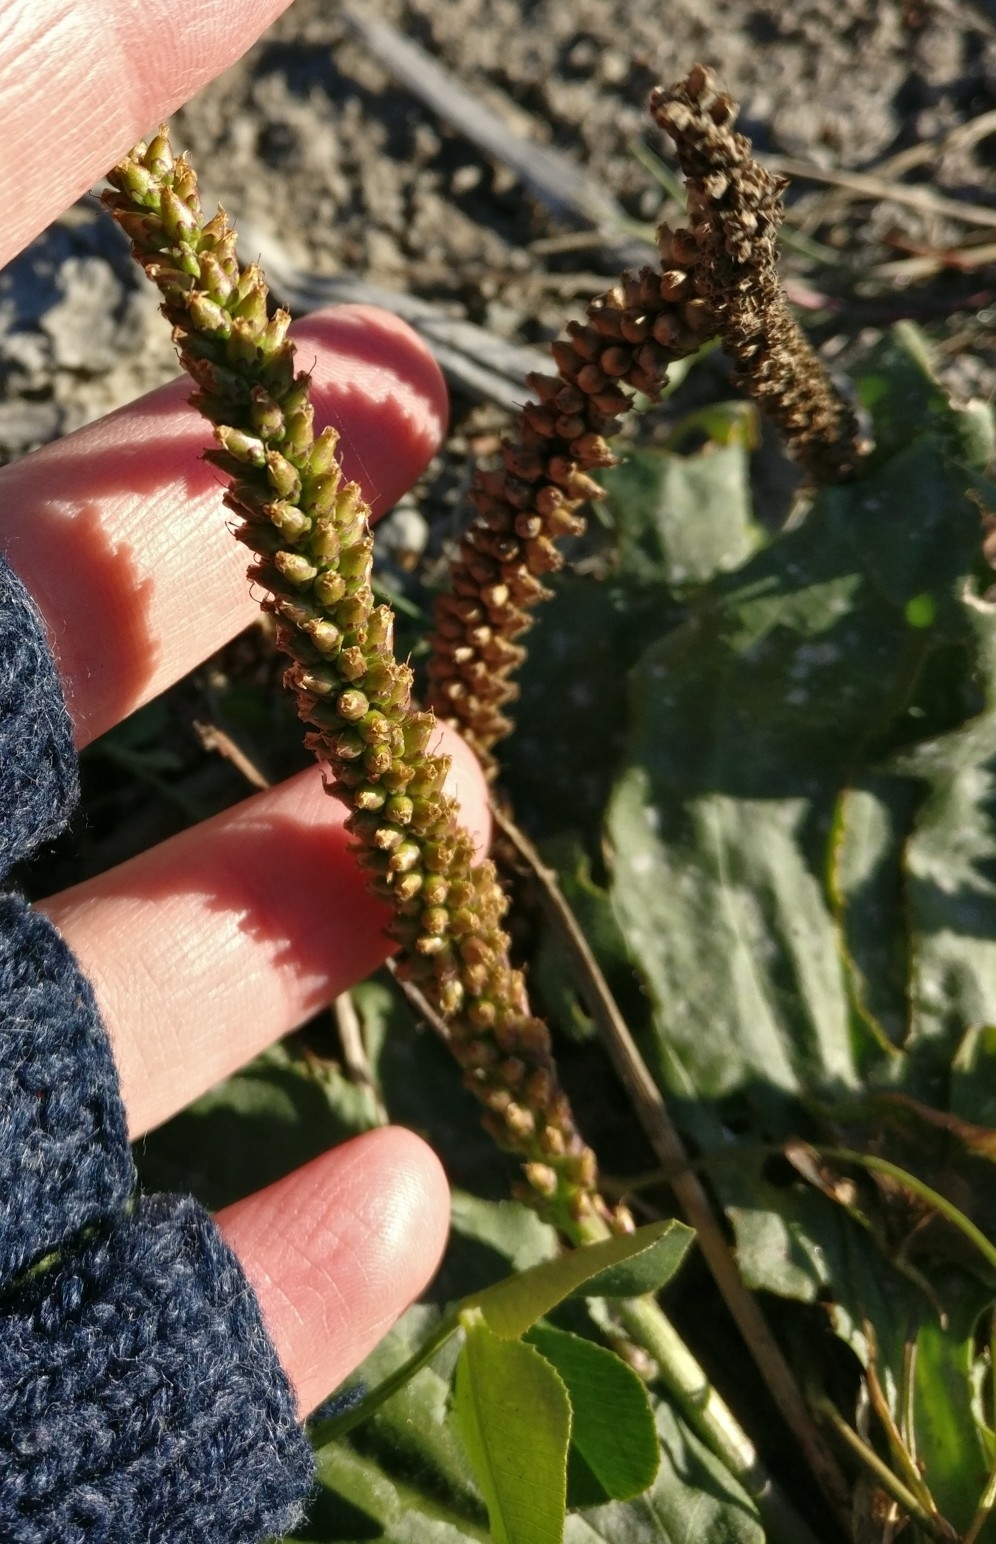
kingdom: Plantae
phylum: Tracheophyta
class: Magnoliopsida
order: Lamiales
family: Plantaginaceae
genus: Plantago
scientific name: Plantago major
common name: Common plantain
